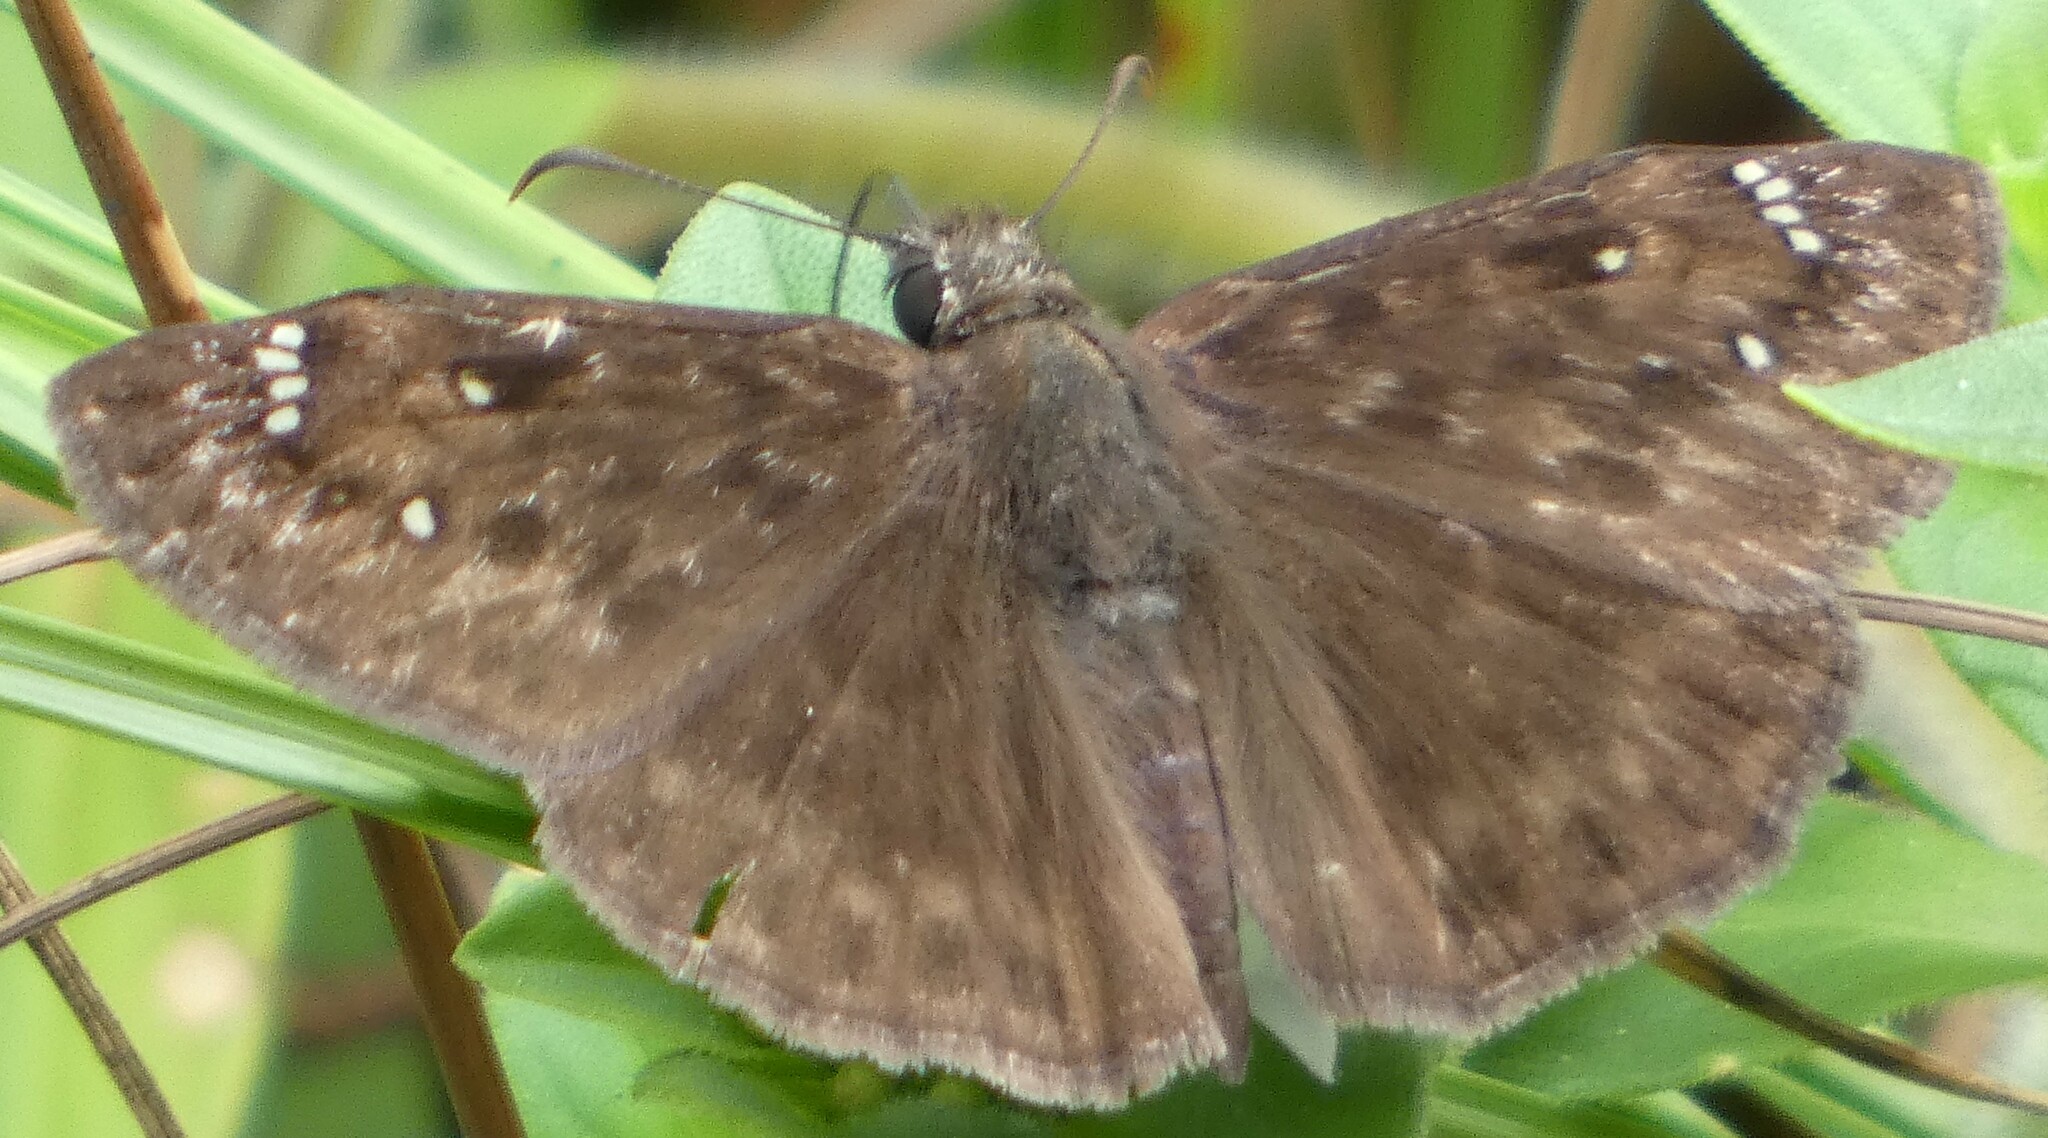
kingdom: Animalia
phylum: Arthropoda
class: Insecta
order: Lepidoptera
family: Hesperiidae
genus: Erynnis
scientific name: Erynnis horatius
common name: Horace's duskywing
